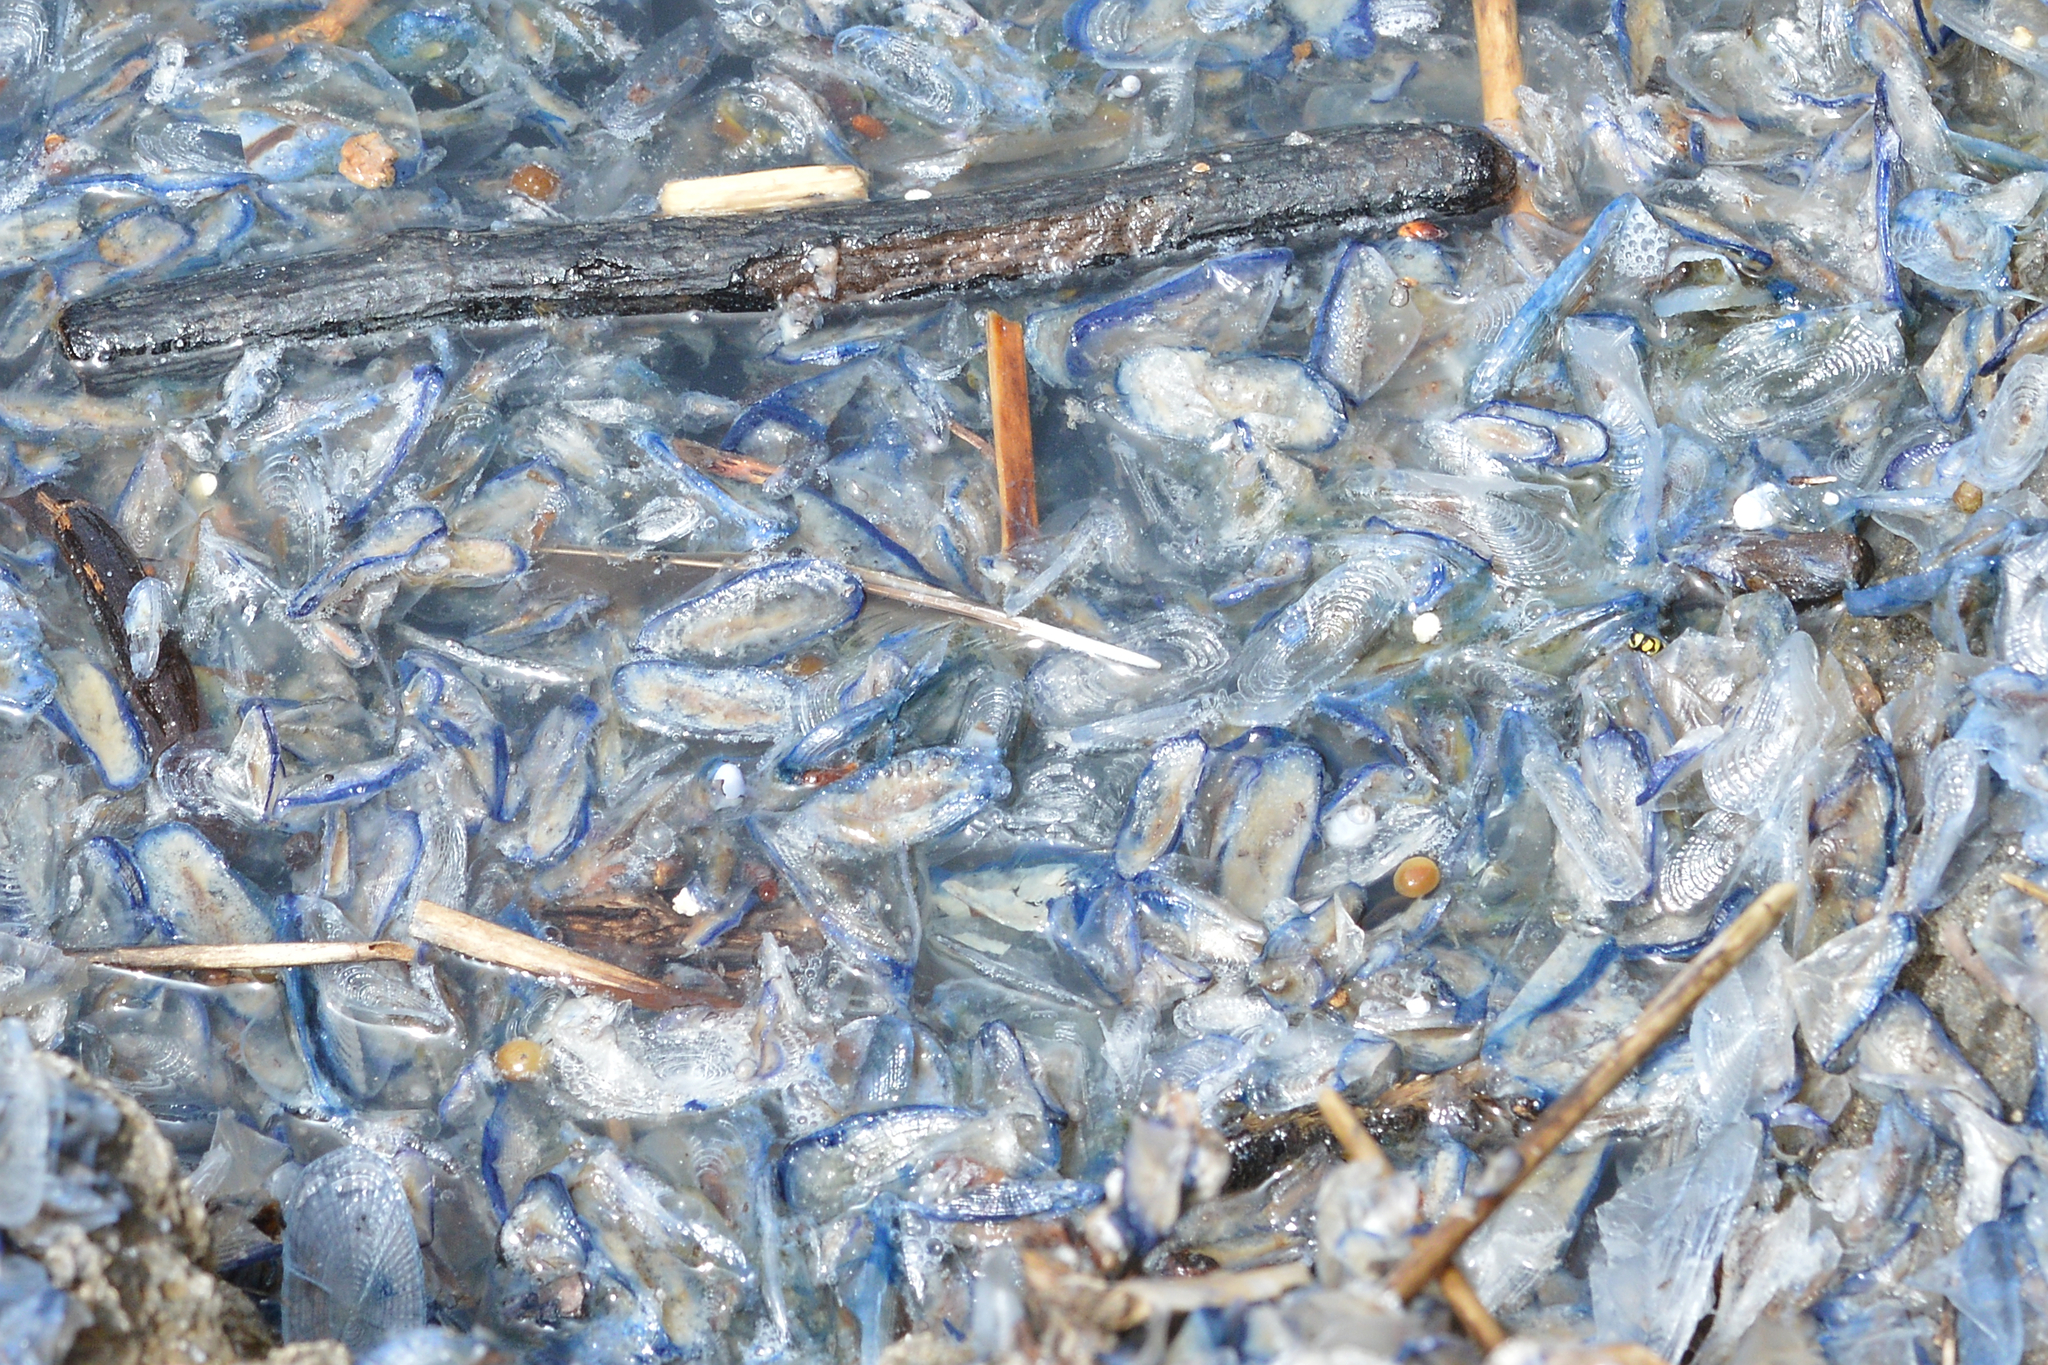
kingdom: Animalia
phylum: Cnidaria
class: Hydrozoa
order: Anthoathecata
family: Porpitidae
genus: Velella
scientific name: Velella velella
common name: By-the-wind-sailor
